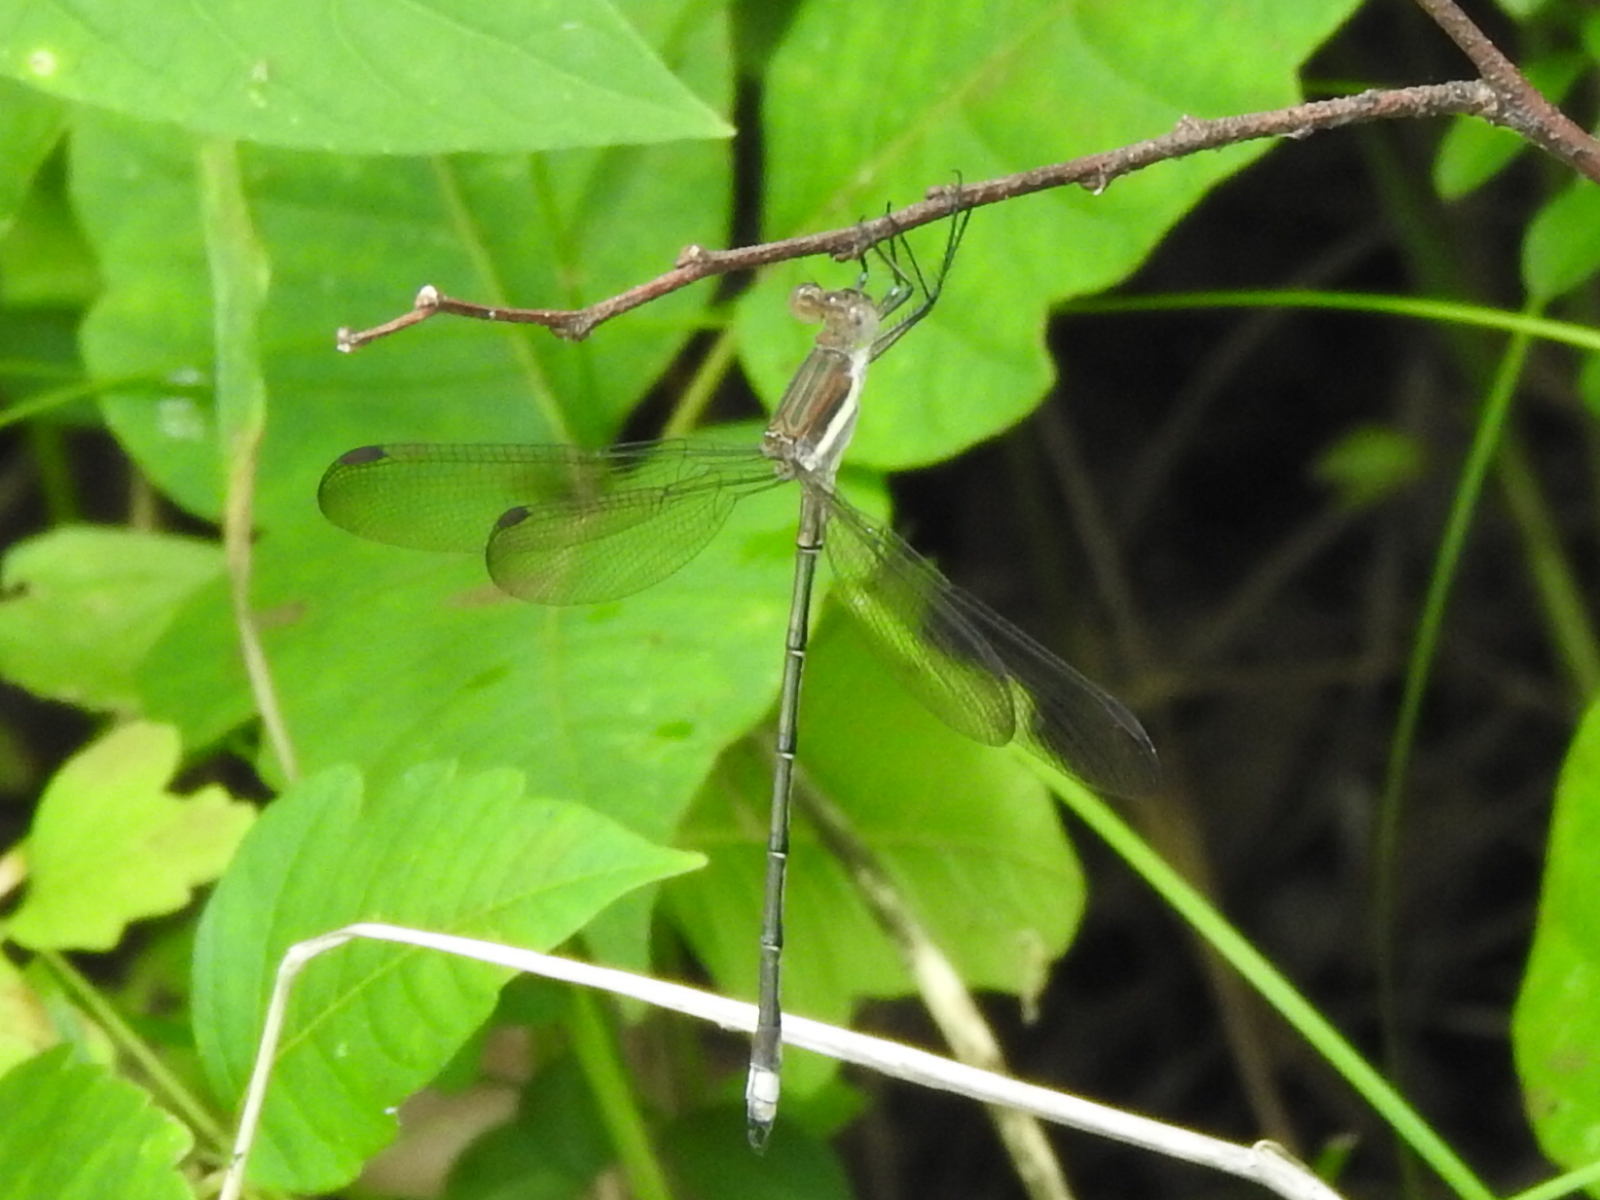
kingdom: Animalia
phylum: Arthropoda
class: Insecta
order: Odonata
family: Lestidae
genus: Archilestes
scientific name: Archilestes grandis
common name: Great spreadwing
